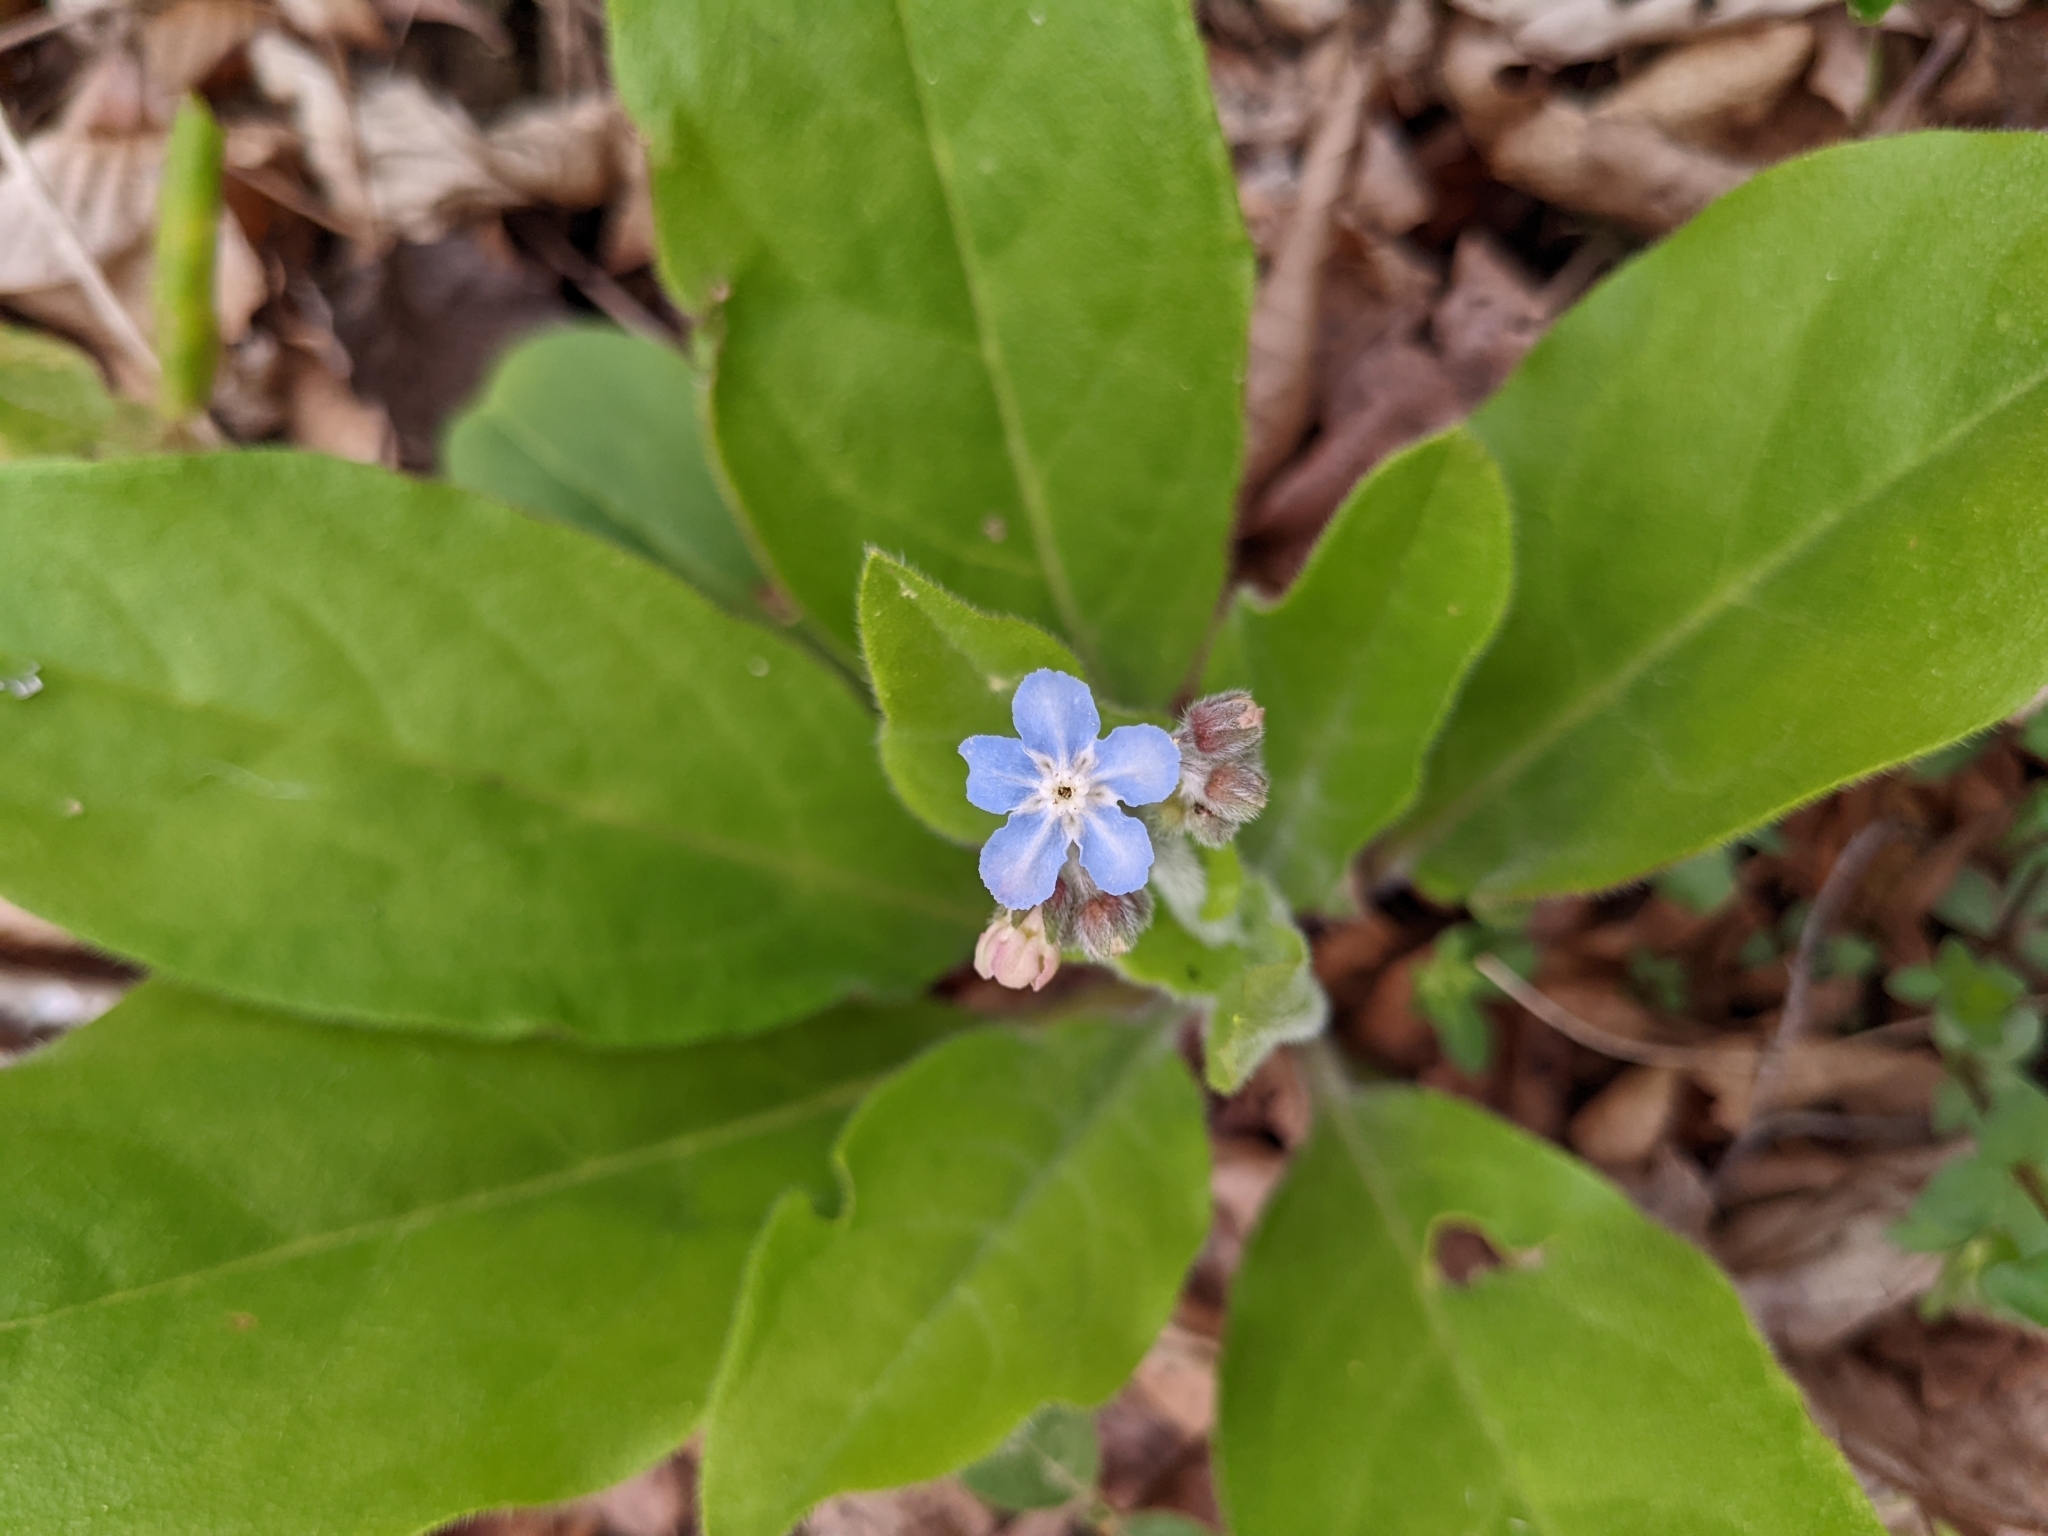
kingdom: Plantae
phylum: Tracheophyta
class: Magnoliopsida
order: Boraginales
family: Boraginaceae
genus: Andersonglossum
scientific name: Andersonglossum virginianum
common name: Wild comfrey
